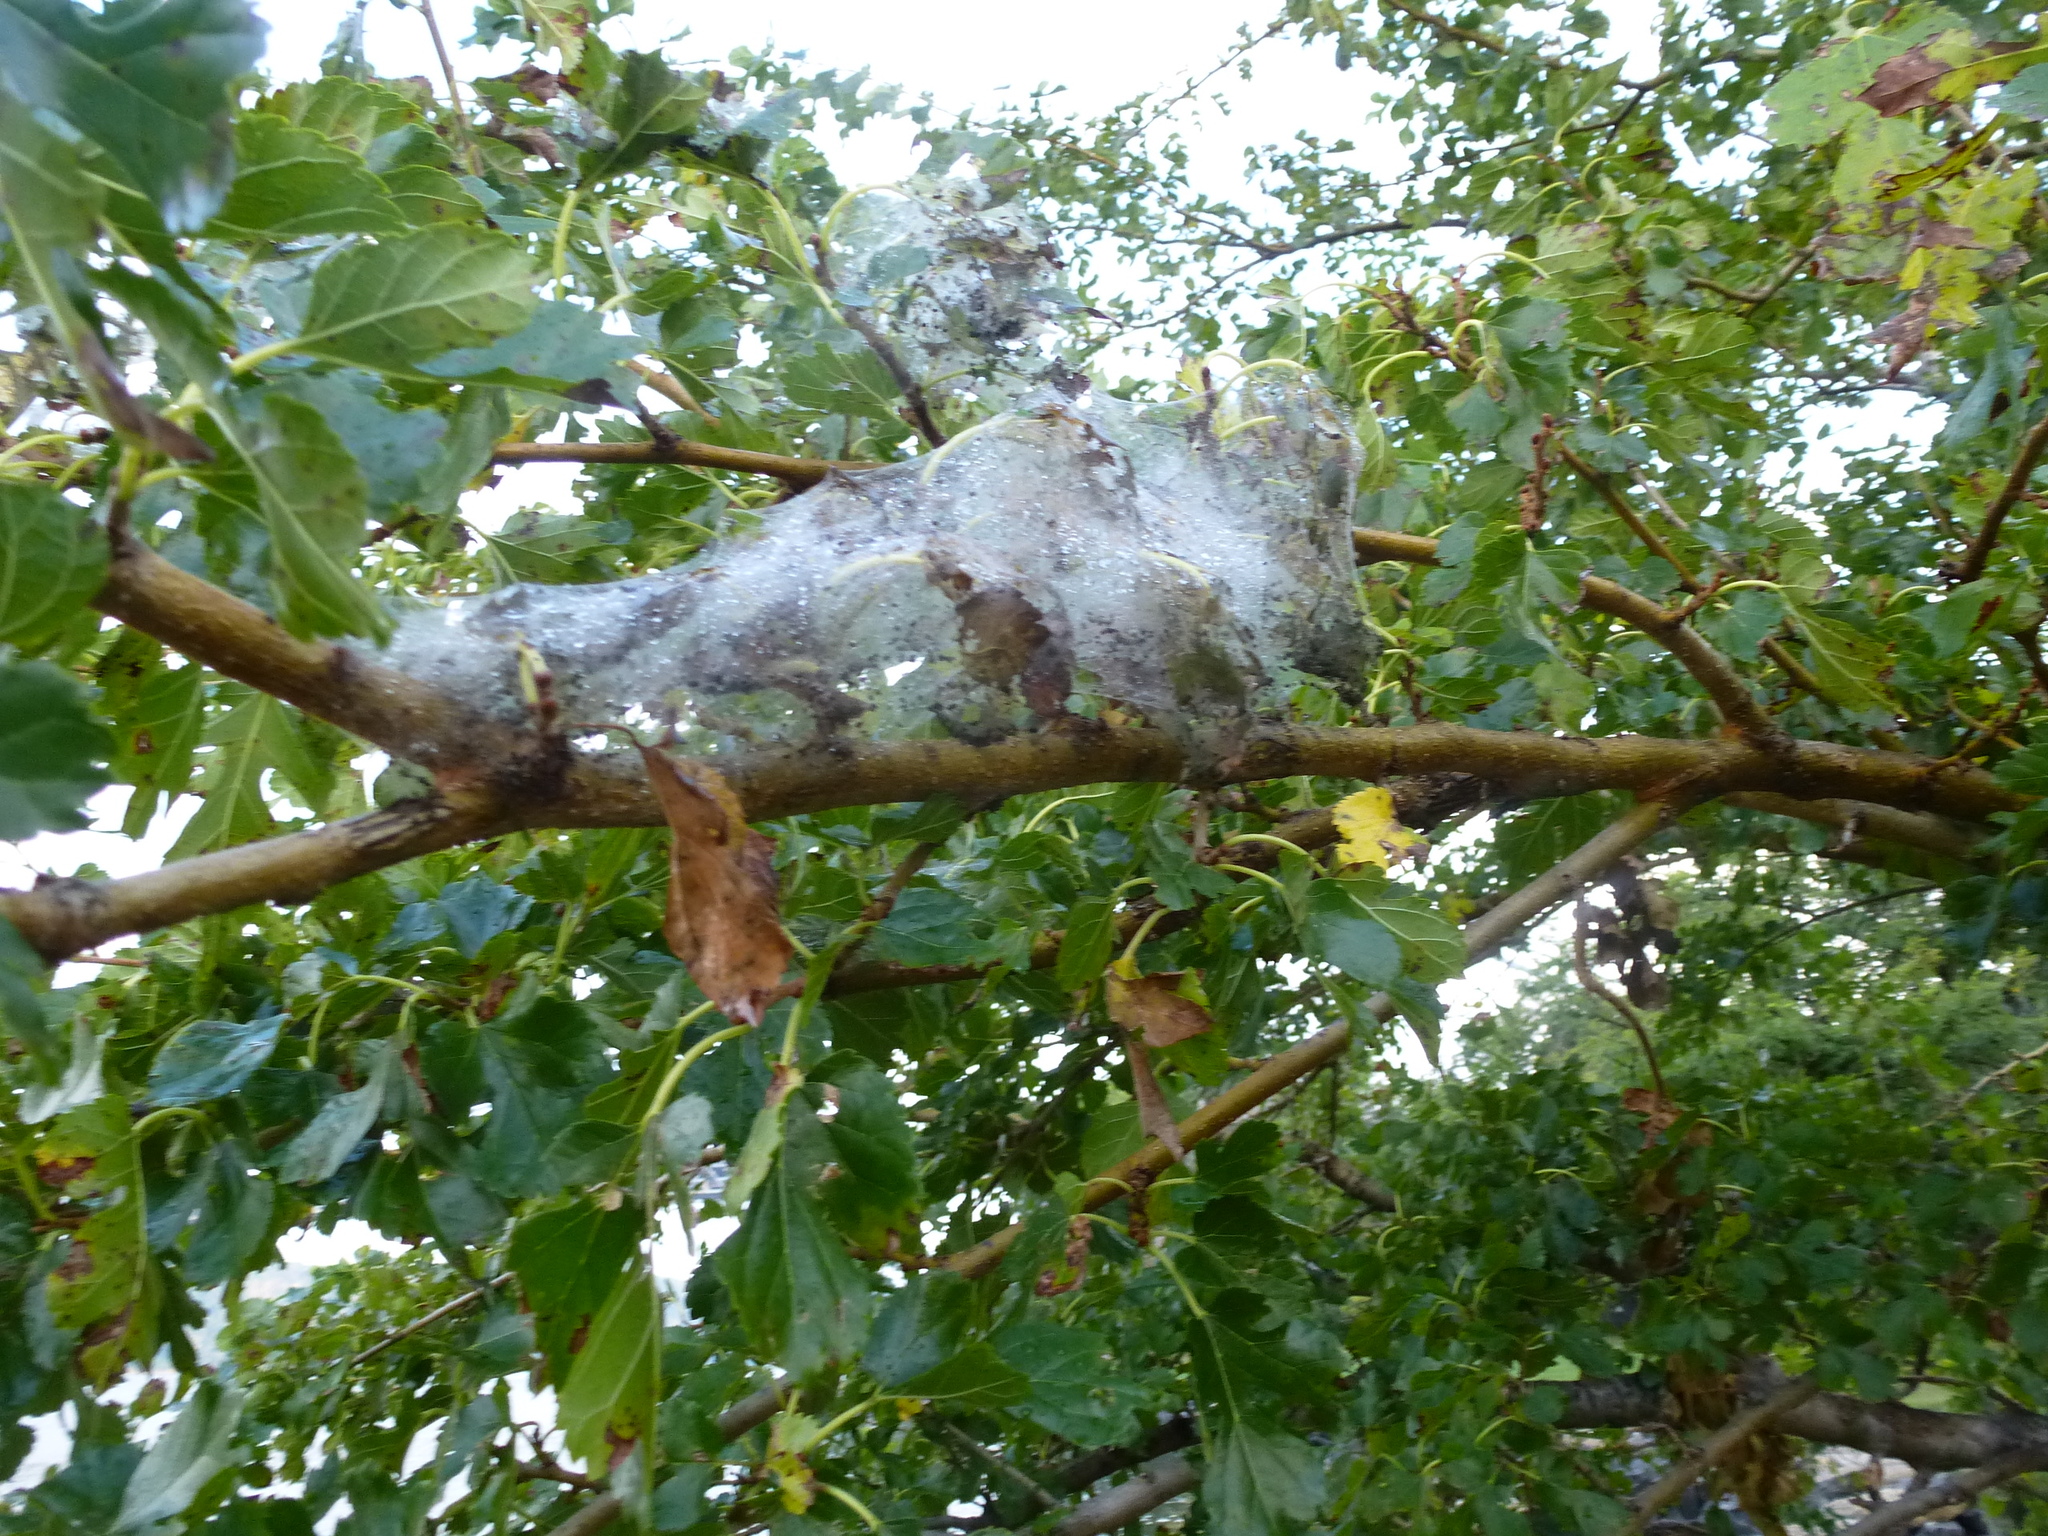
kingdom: Animalia
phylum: Arthropoda
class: Insecta
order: Lepidoptera
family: Erebidae
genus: Hyphantria
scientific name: Hyphantria cunea
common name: American white moth
